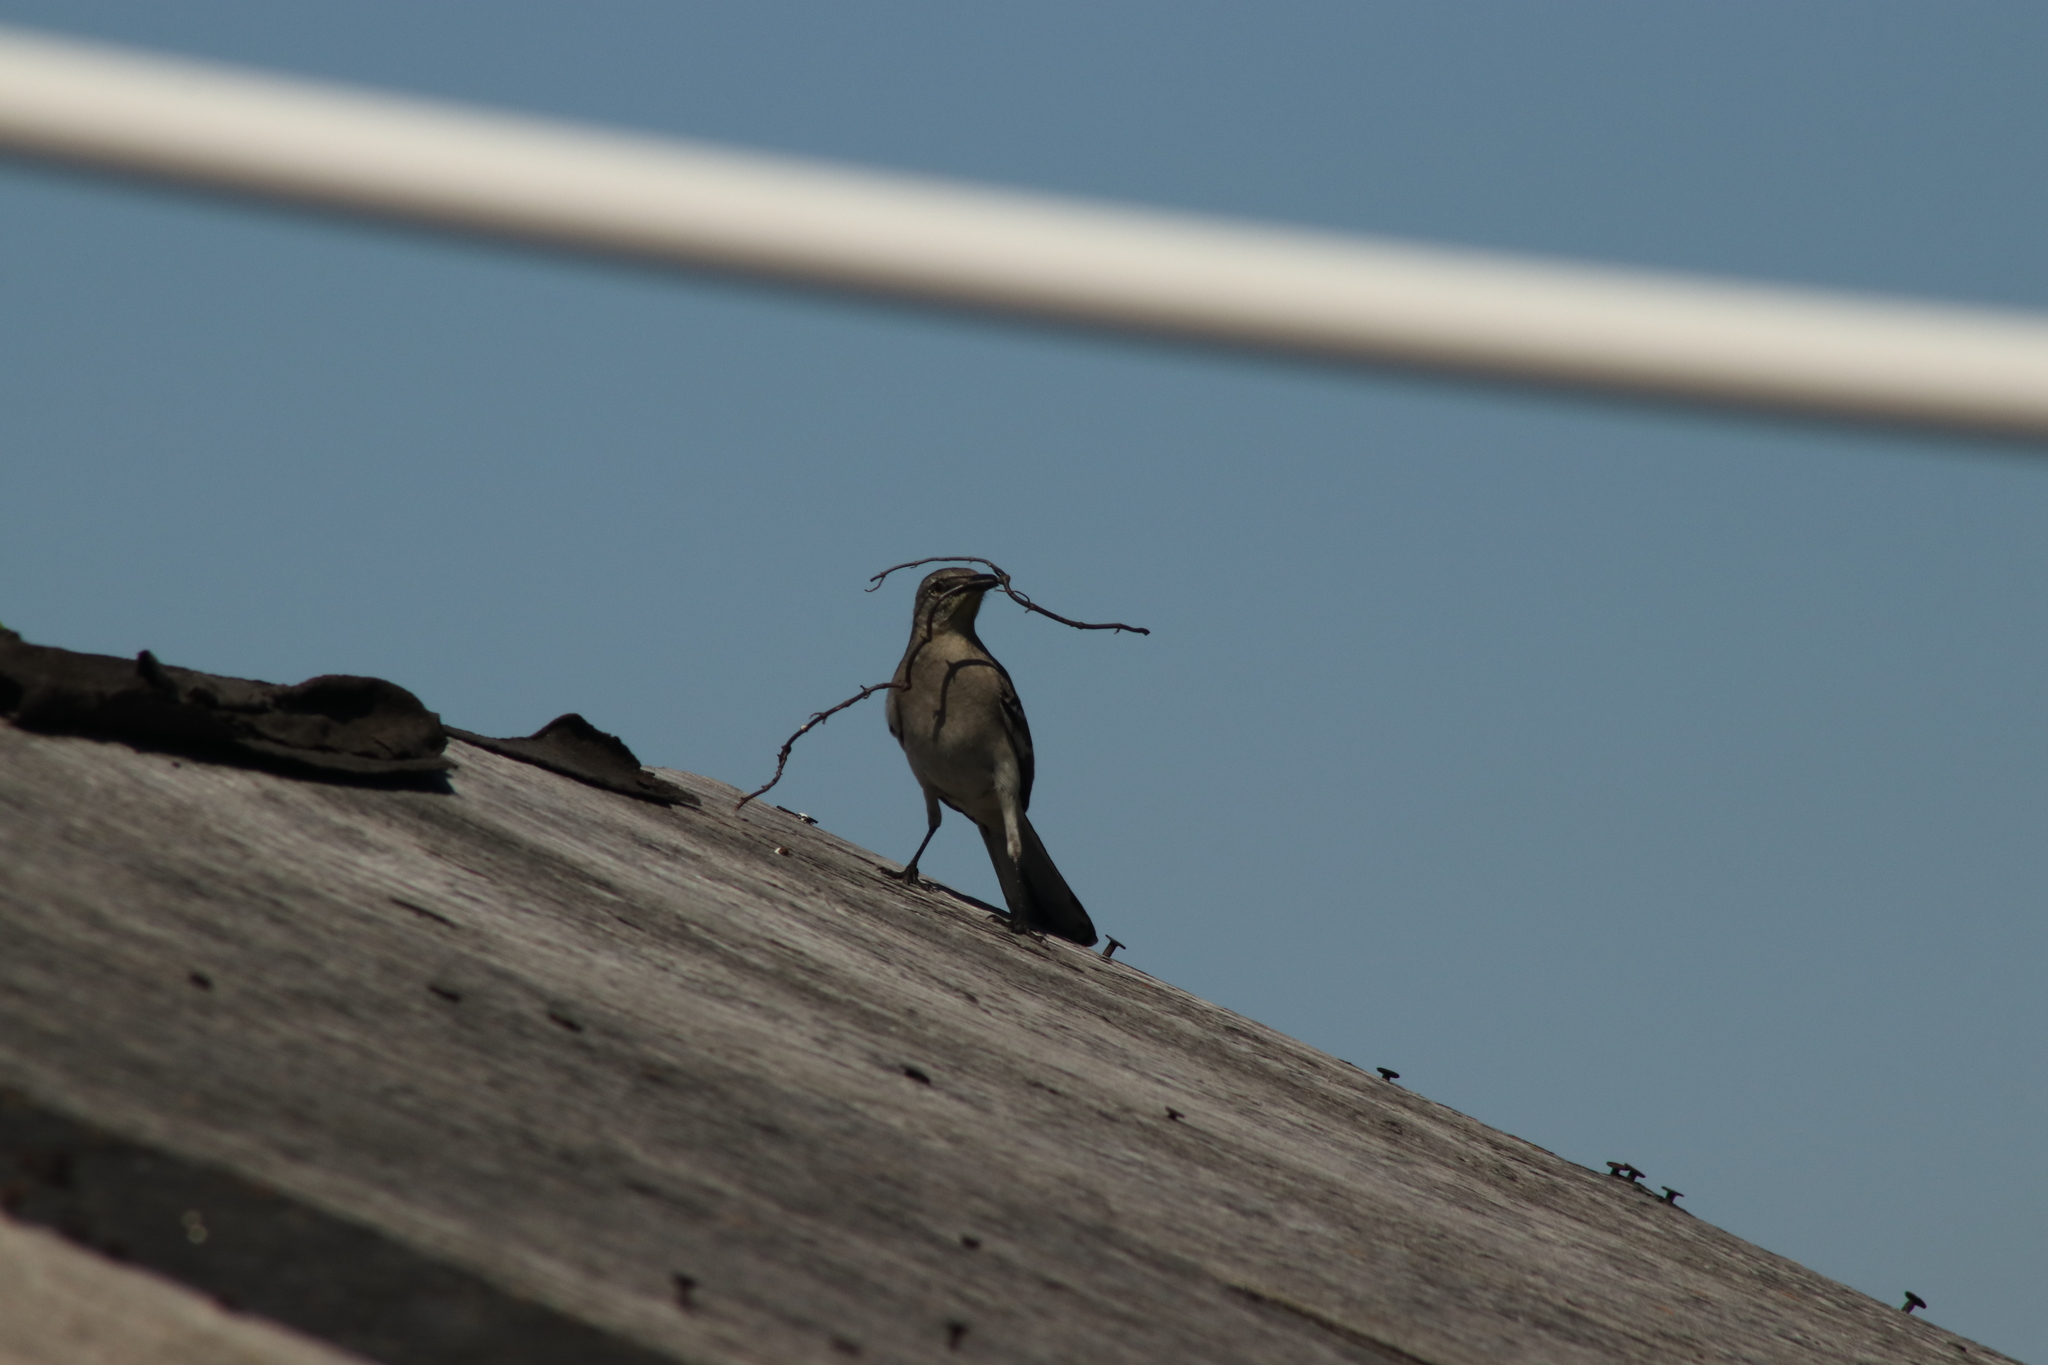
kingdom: Animalia
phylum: Chordata
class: Aves
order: Passeriformes
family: Mimidae
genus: Mimus
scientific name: Mimus polyglottos
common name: Northern mockingbird
